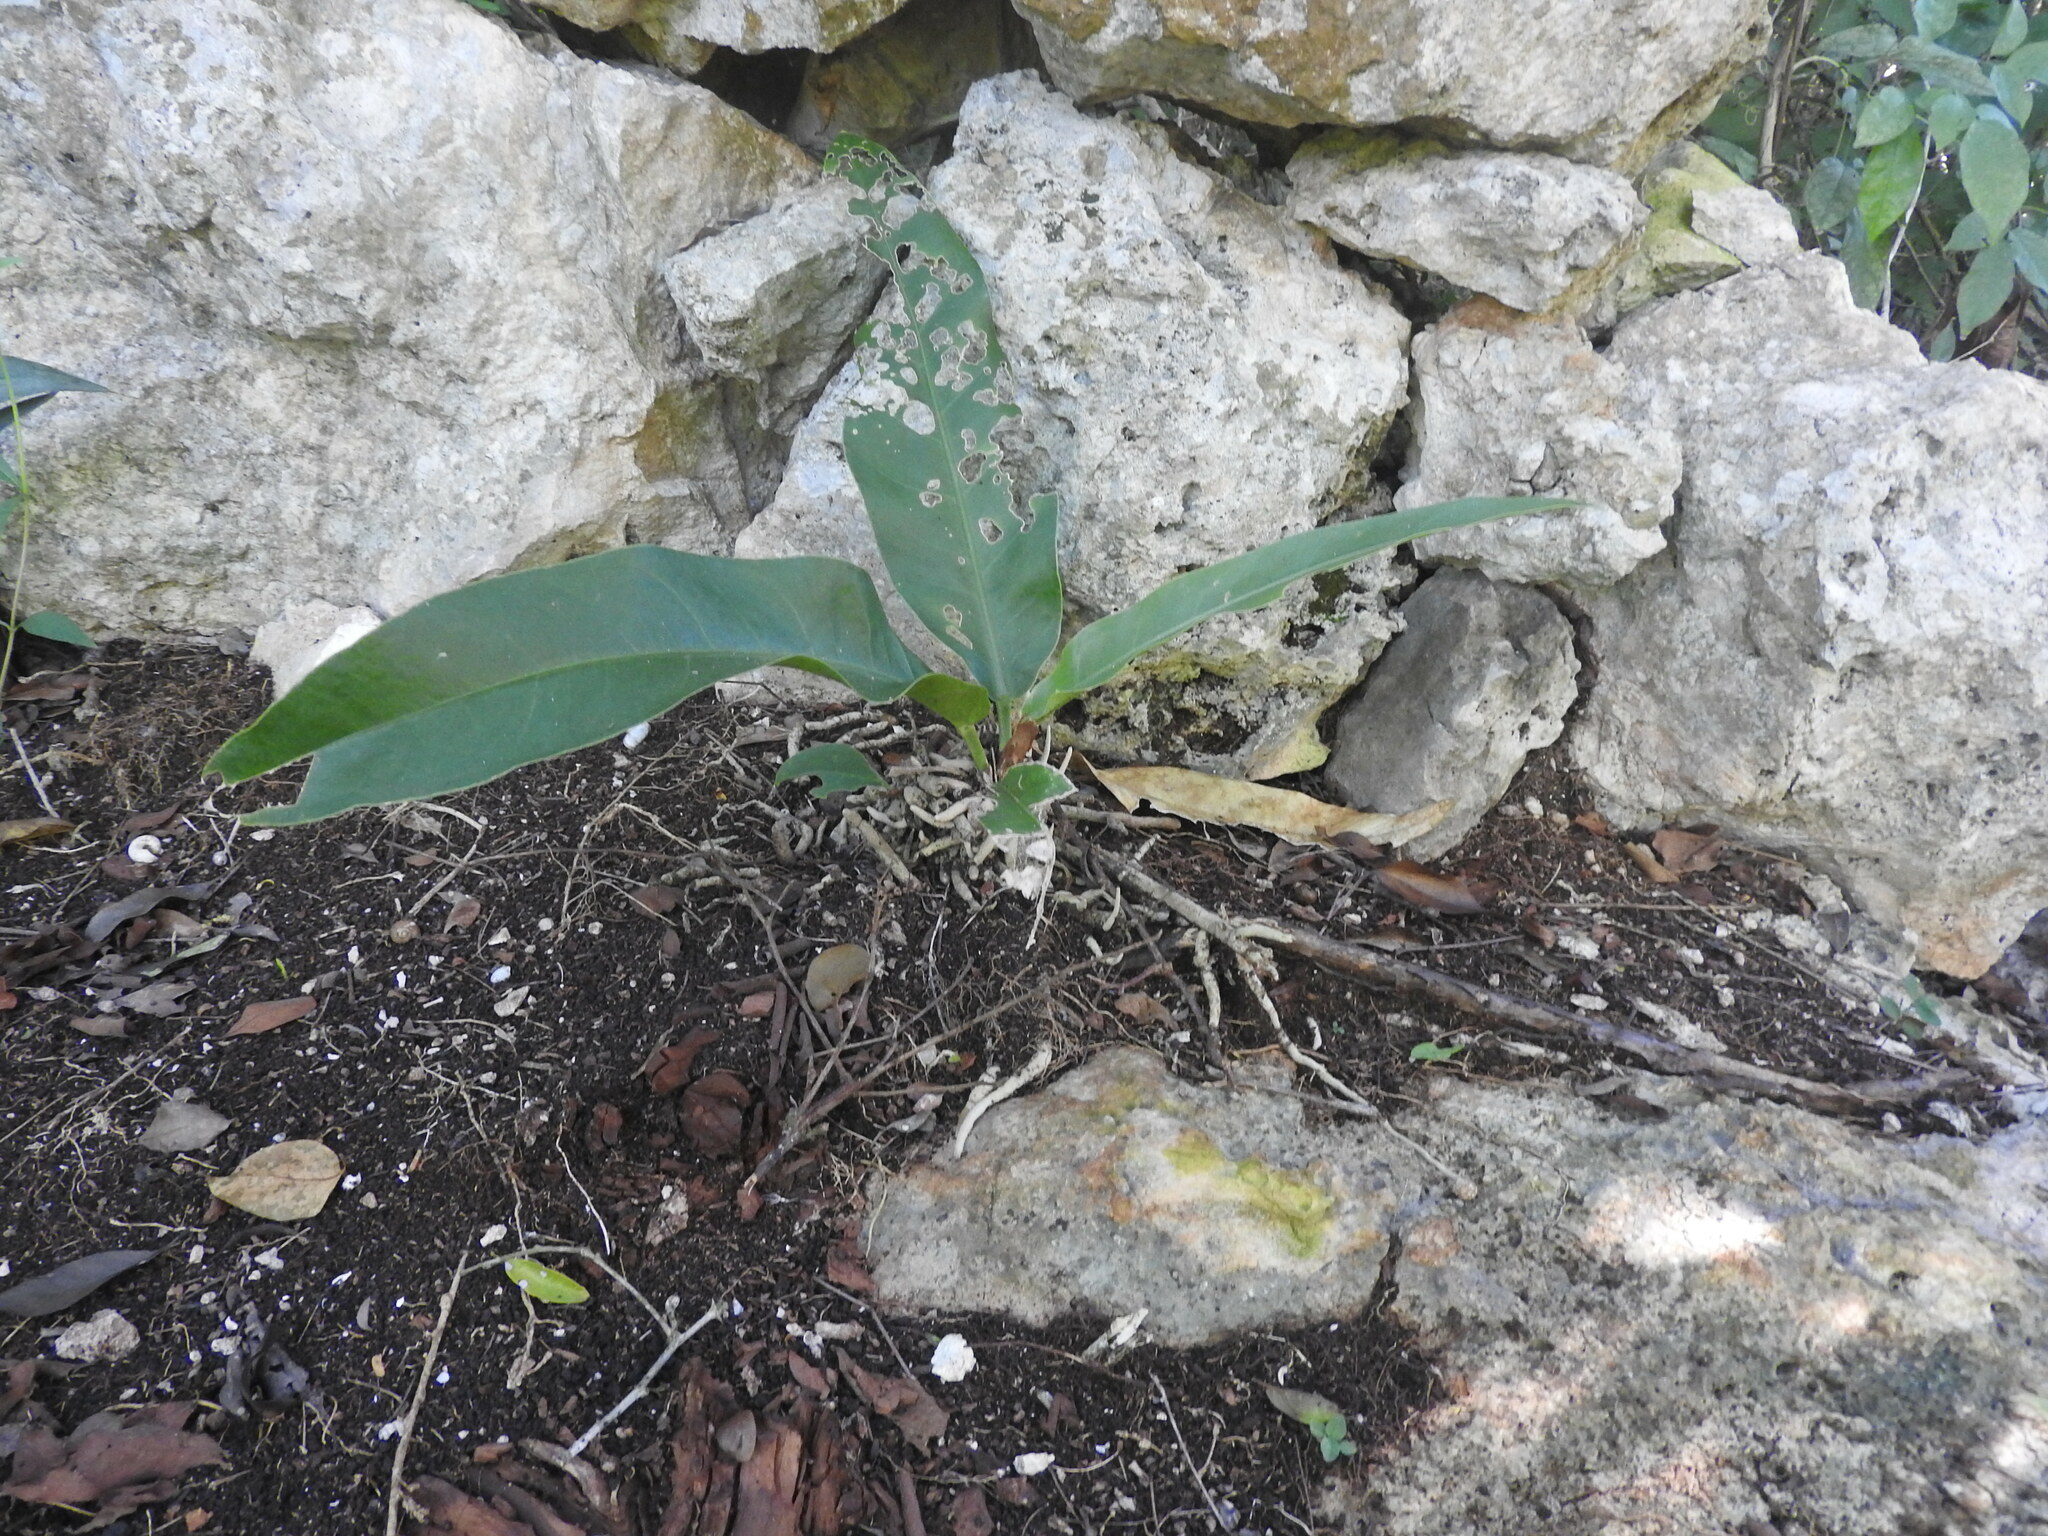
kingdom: Plantae
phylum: Tracheophyta
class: Liliopsida
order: Alismatales
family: Araceae
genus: Anthurium
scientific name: Anthurium schlechtendalii
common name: Laceleaf
